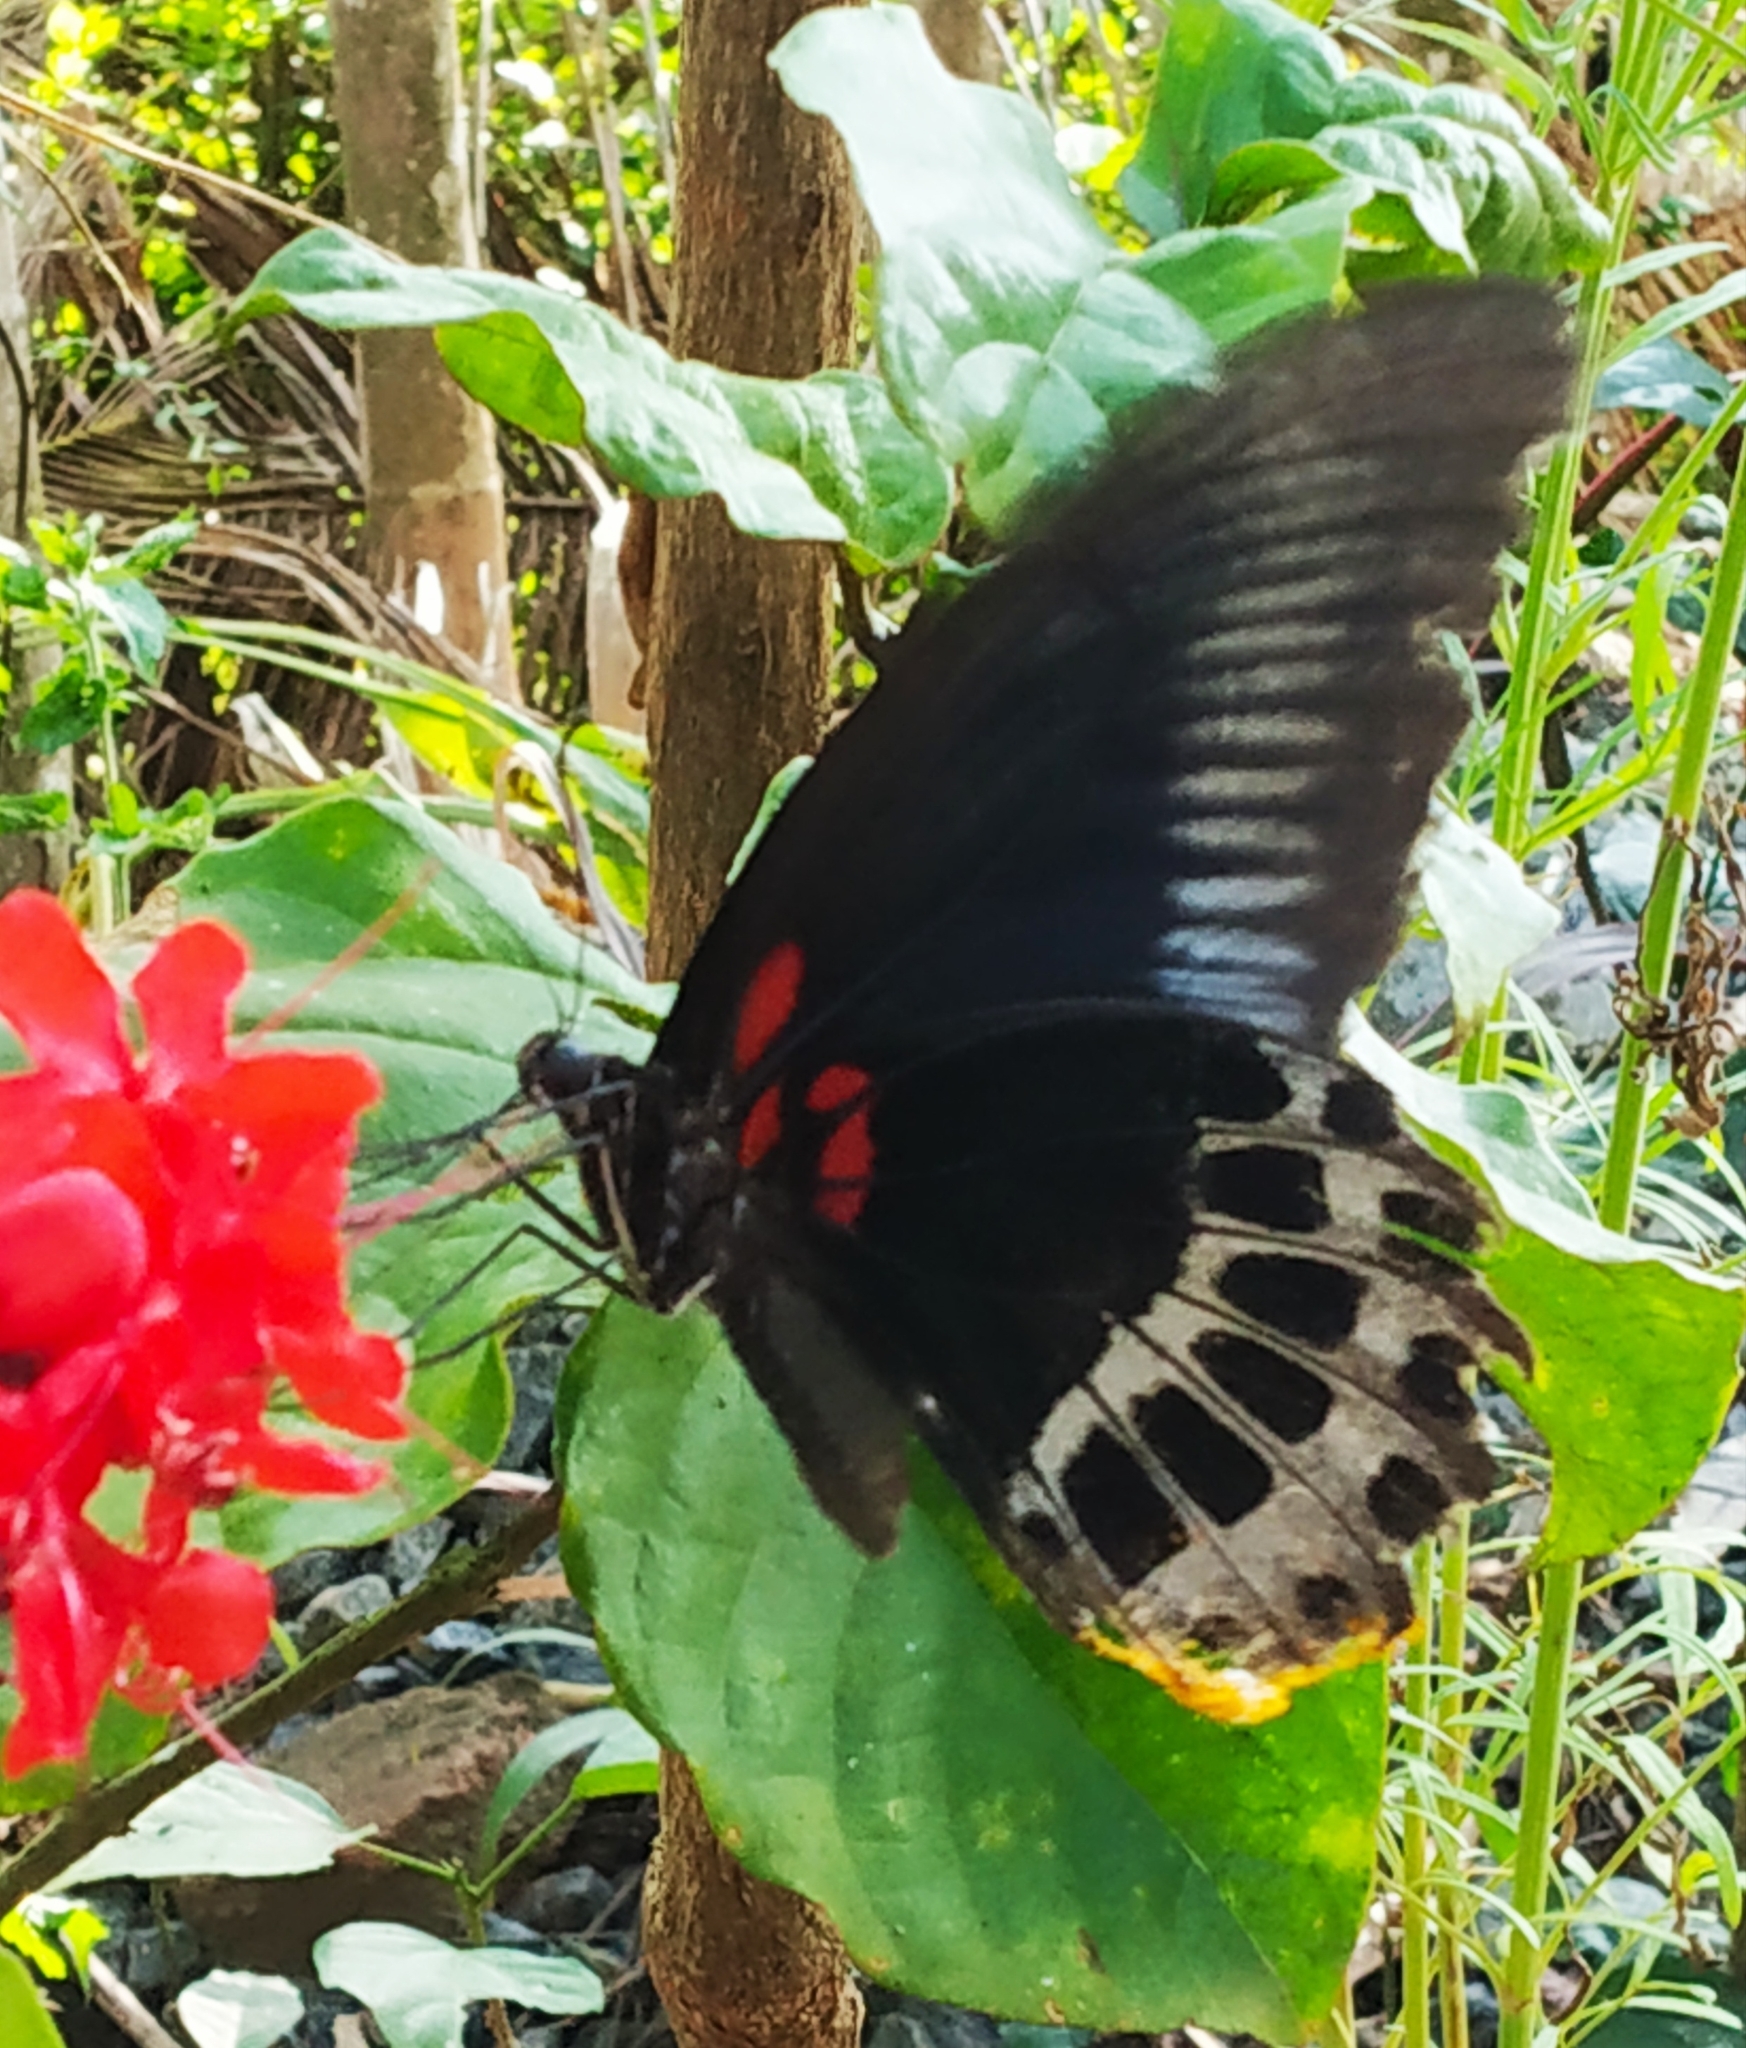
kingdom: Animalia
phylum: Arthropoda
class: Insecta
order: Lepidoptera
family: Papilionidae
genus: Papilio
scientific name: Papilio memnon
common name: Great mormon
